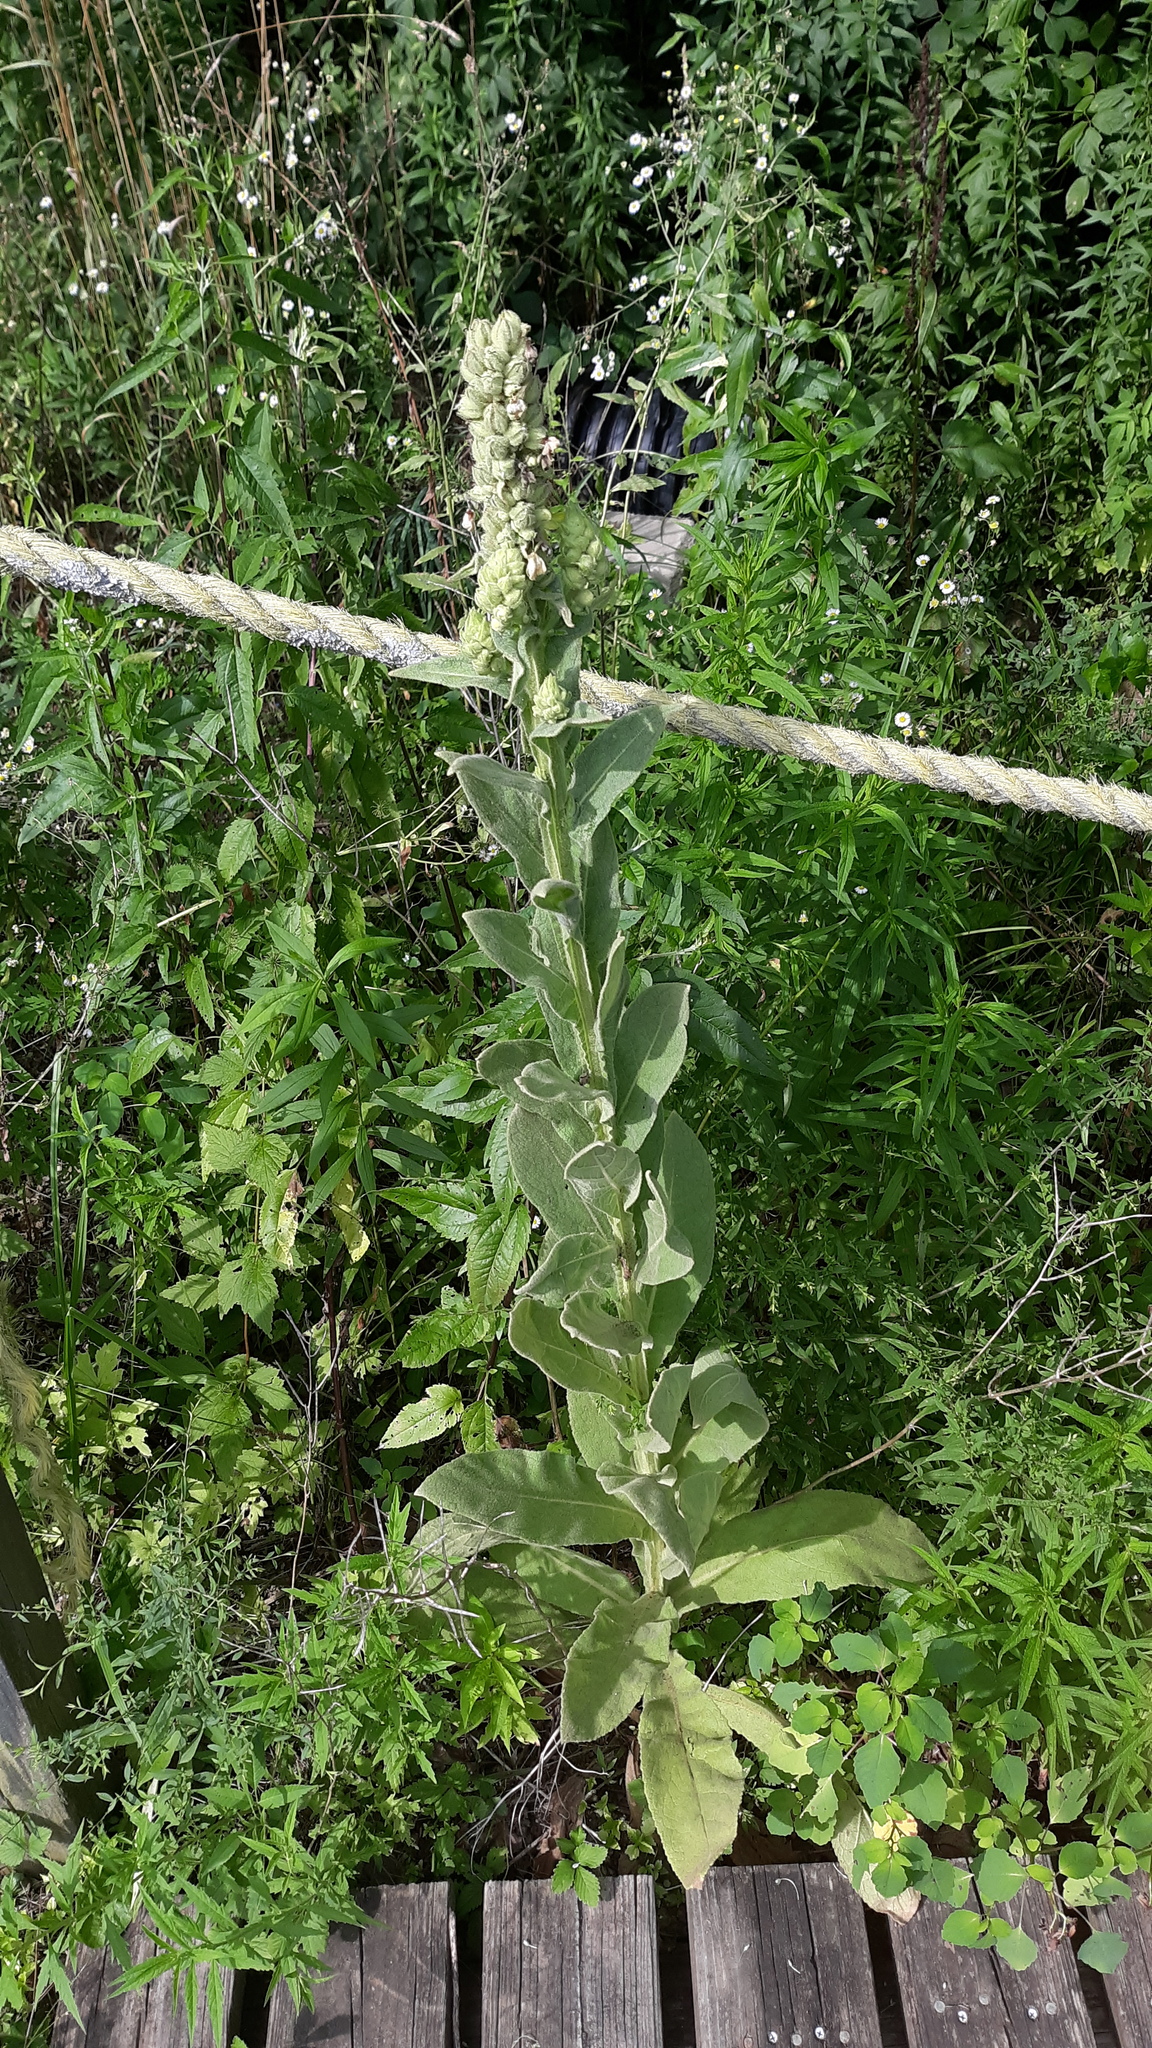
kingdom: Plantae
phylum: Tracheophyta
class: Magnoliopsida
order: Lamiales
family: Scrophulariaceae
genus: Verbascum
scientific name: Verbascum thapsus
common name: Common mullein
